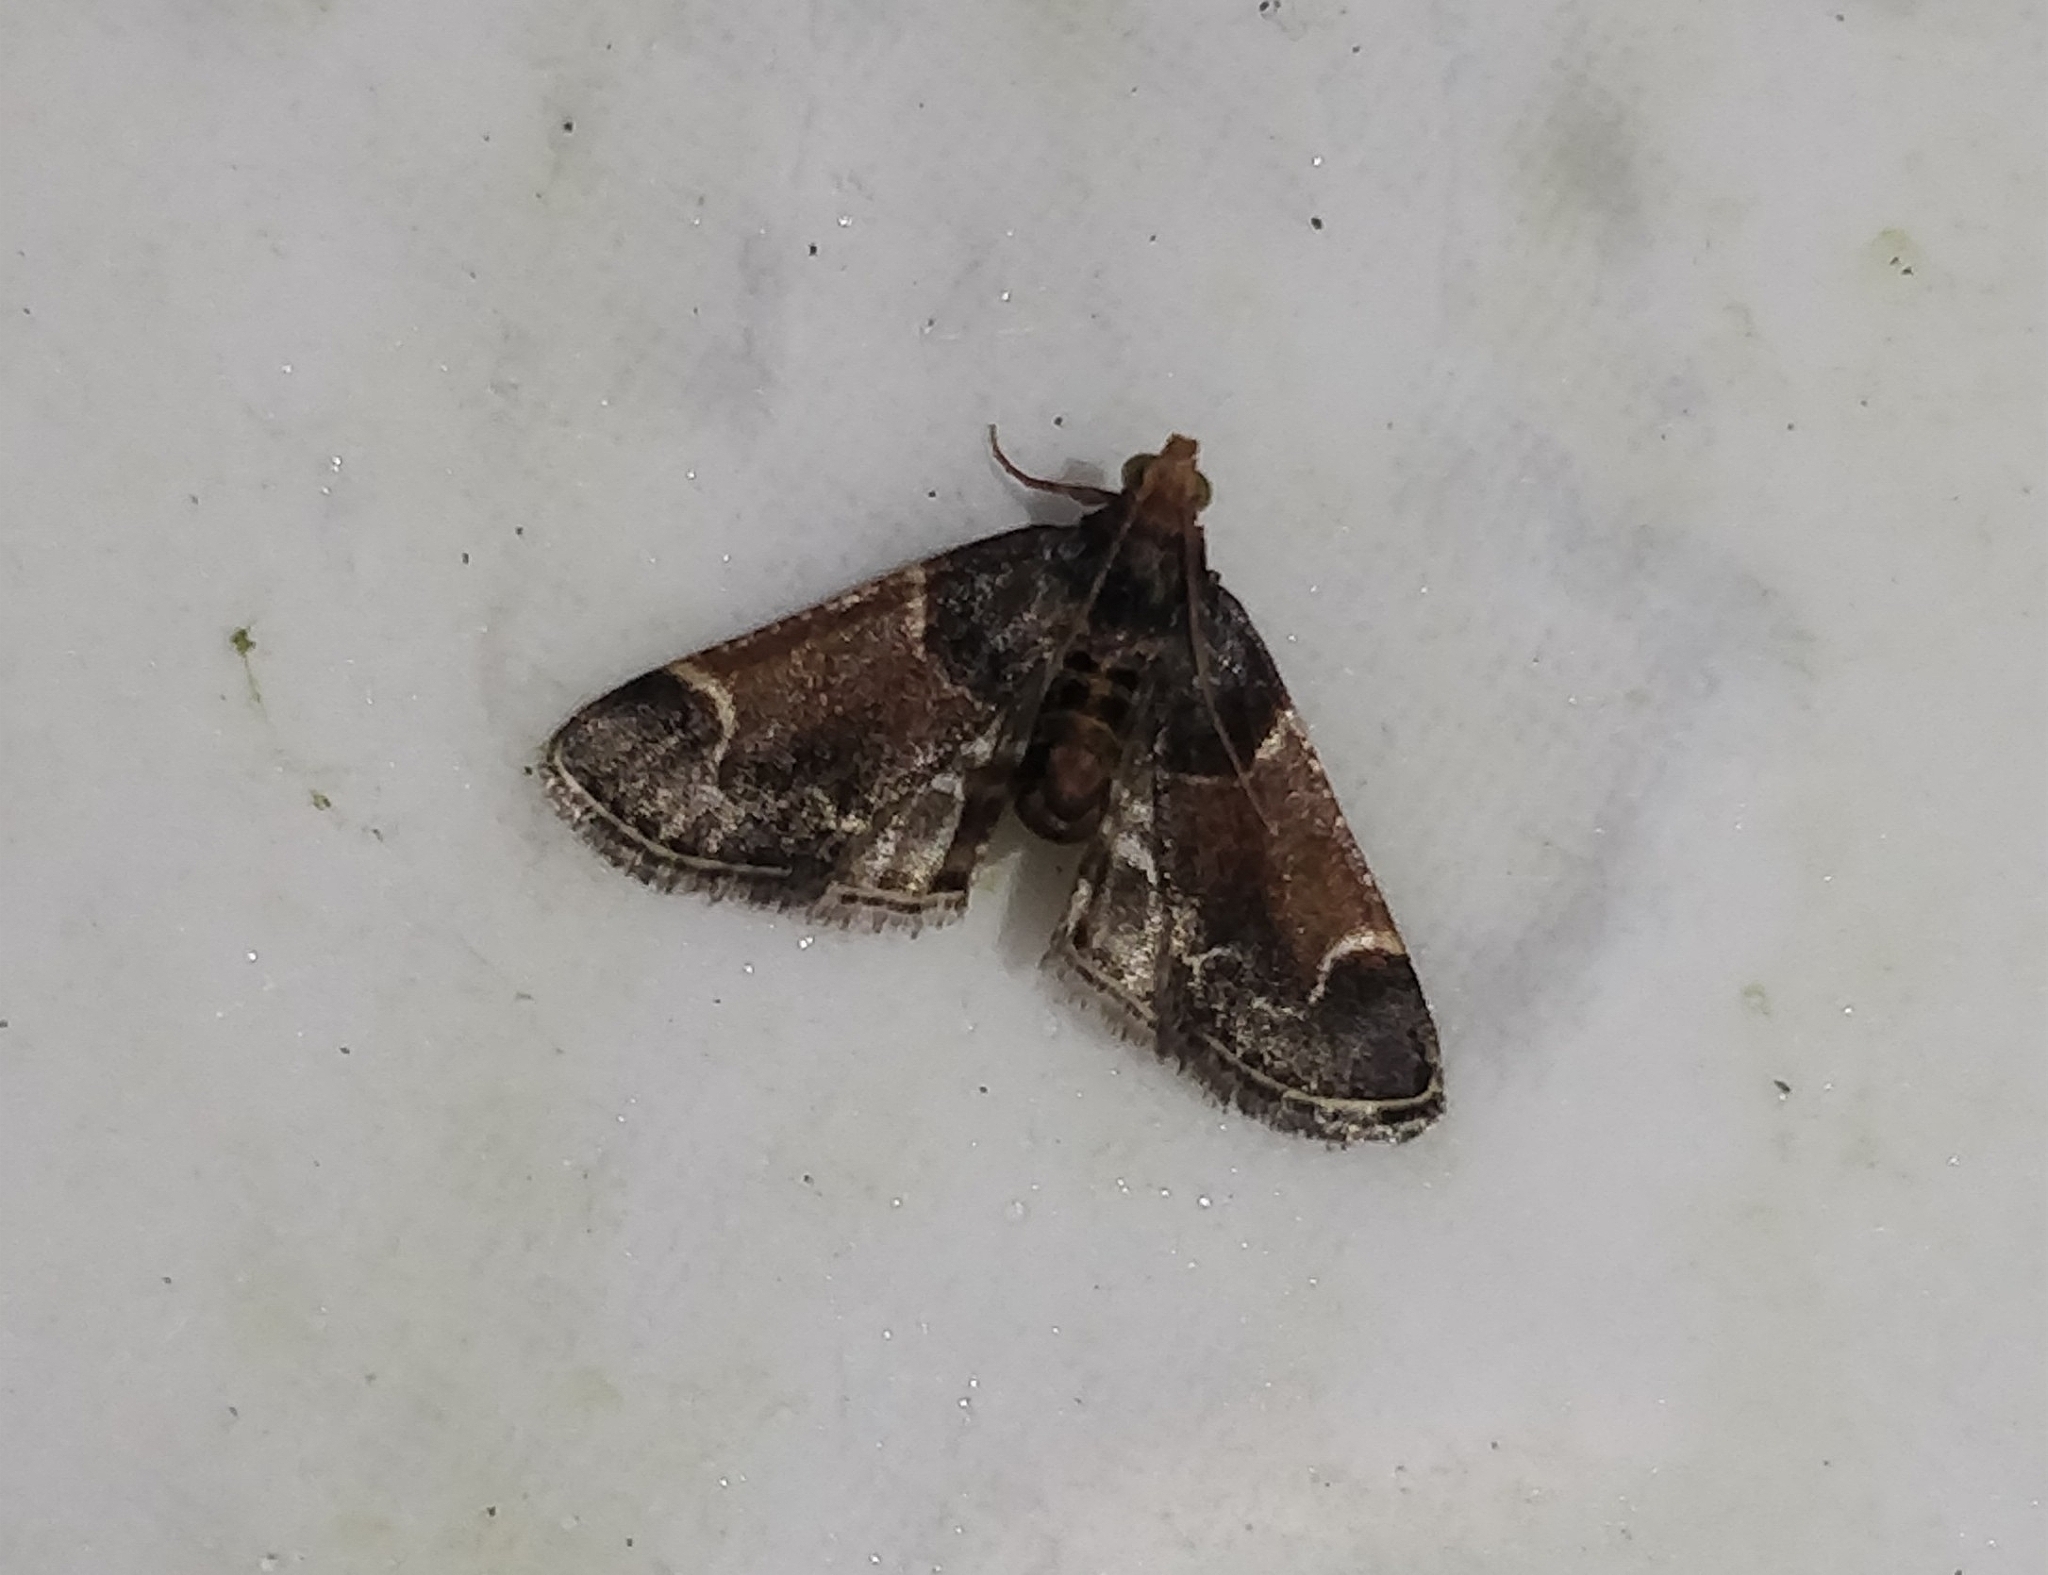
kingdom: Animalia
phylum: Arthropoda
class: Insecta
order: Lepidoptera
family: Pyralidae
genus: Pyralis
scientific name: Pyralis farinalis
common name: Meal moth
